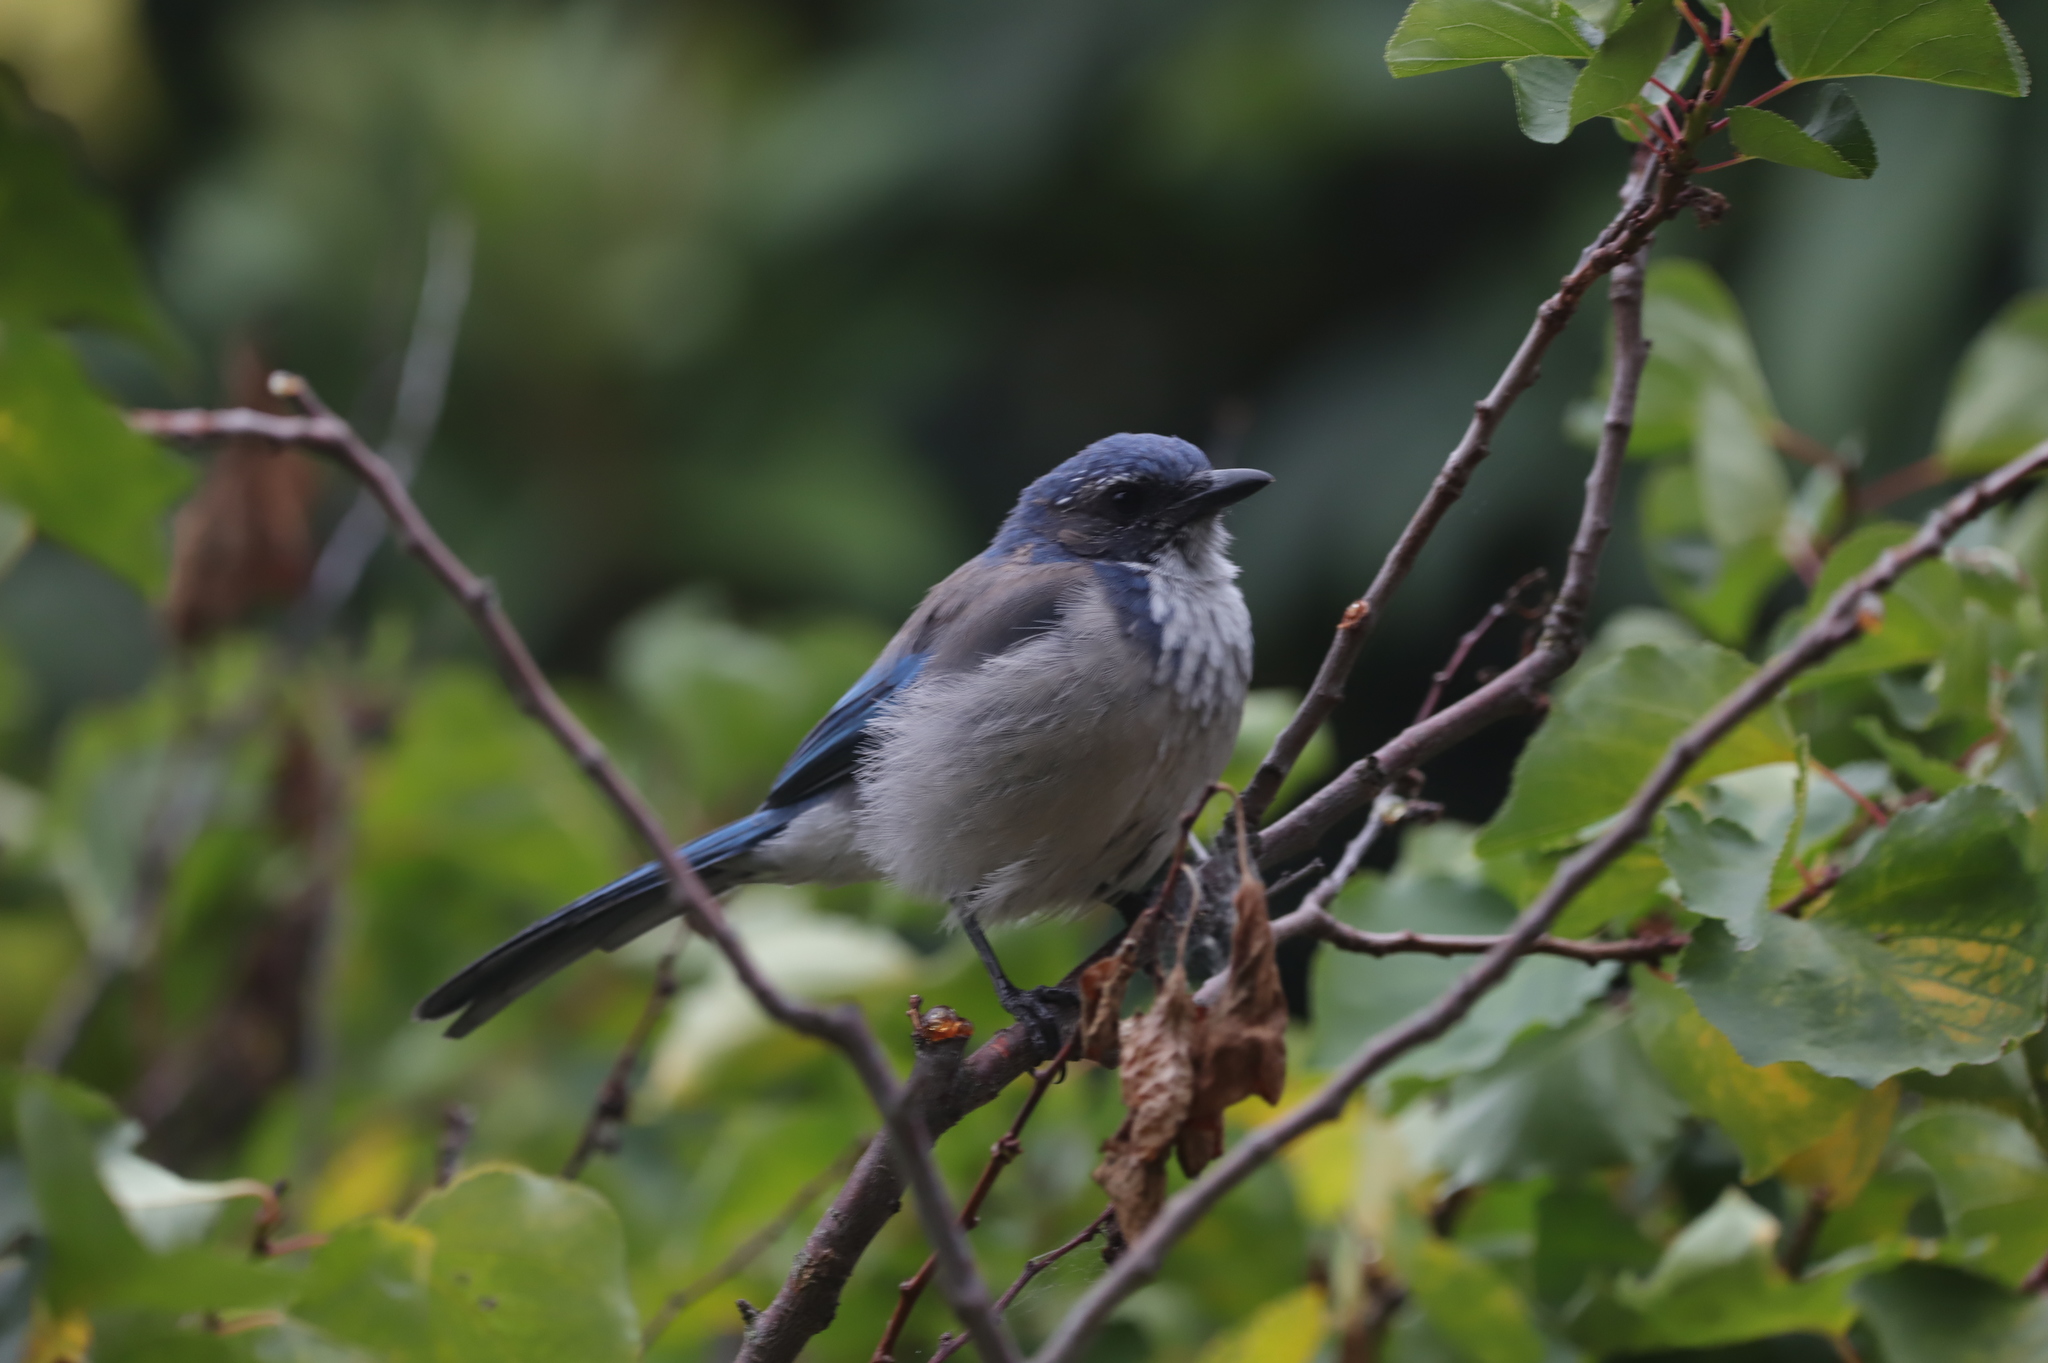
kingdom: Animalia
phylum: Chordata
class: Aves
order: Passeriformes
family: Corvidae
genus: Aphelocoma
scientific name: Aphelocoma californica
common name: California scrub-jay
